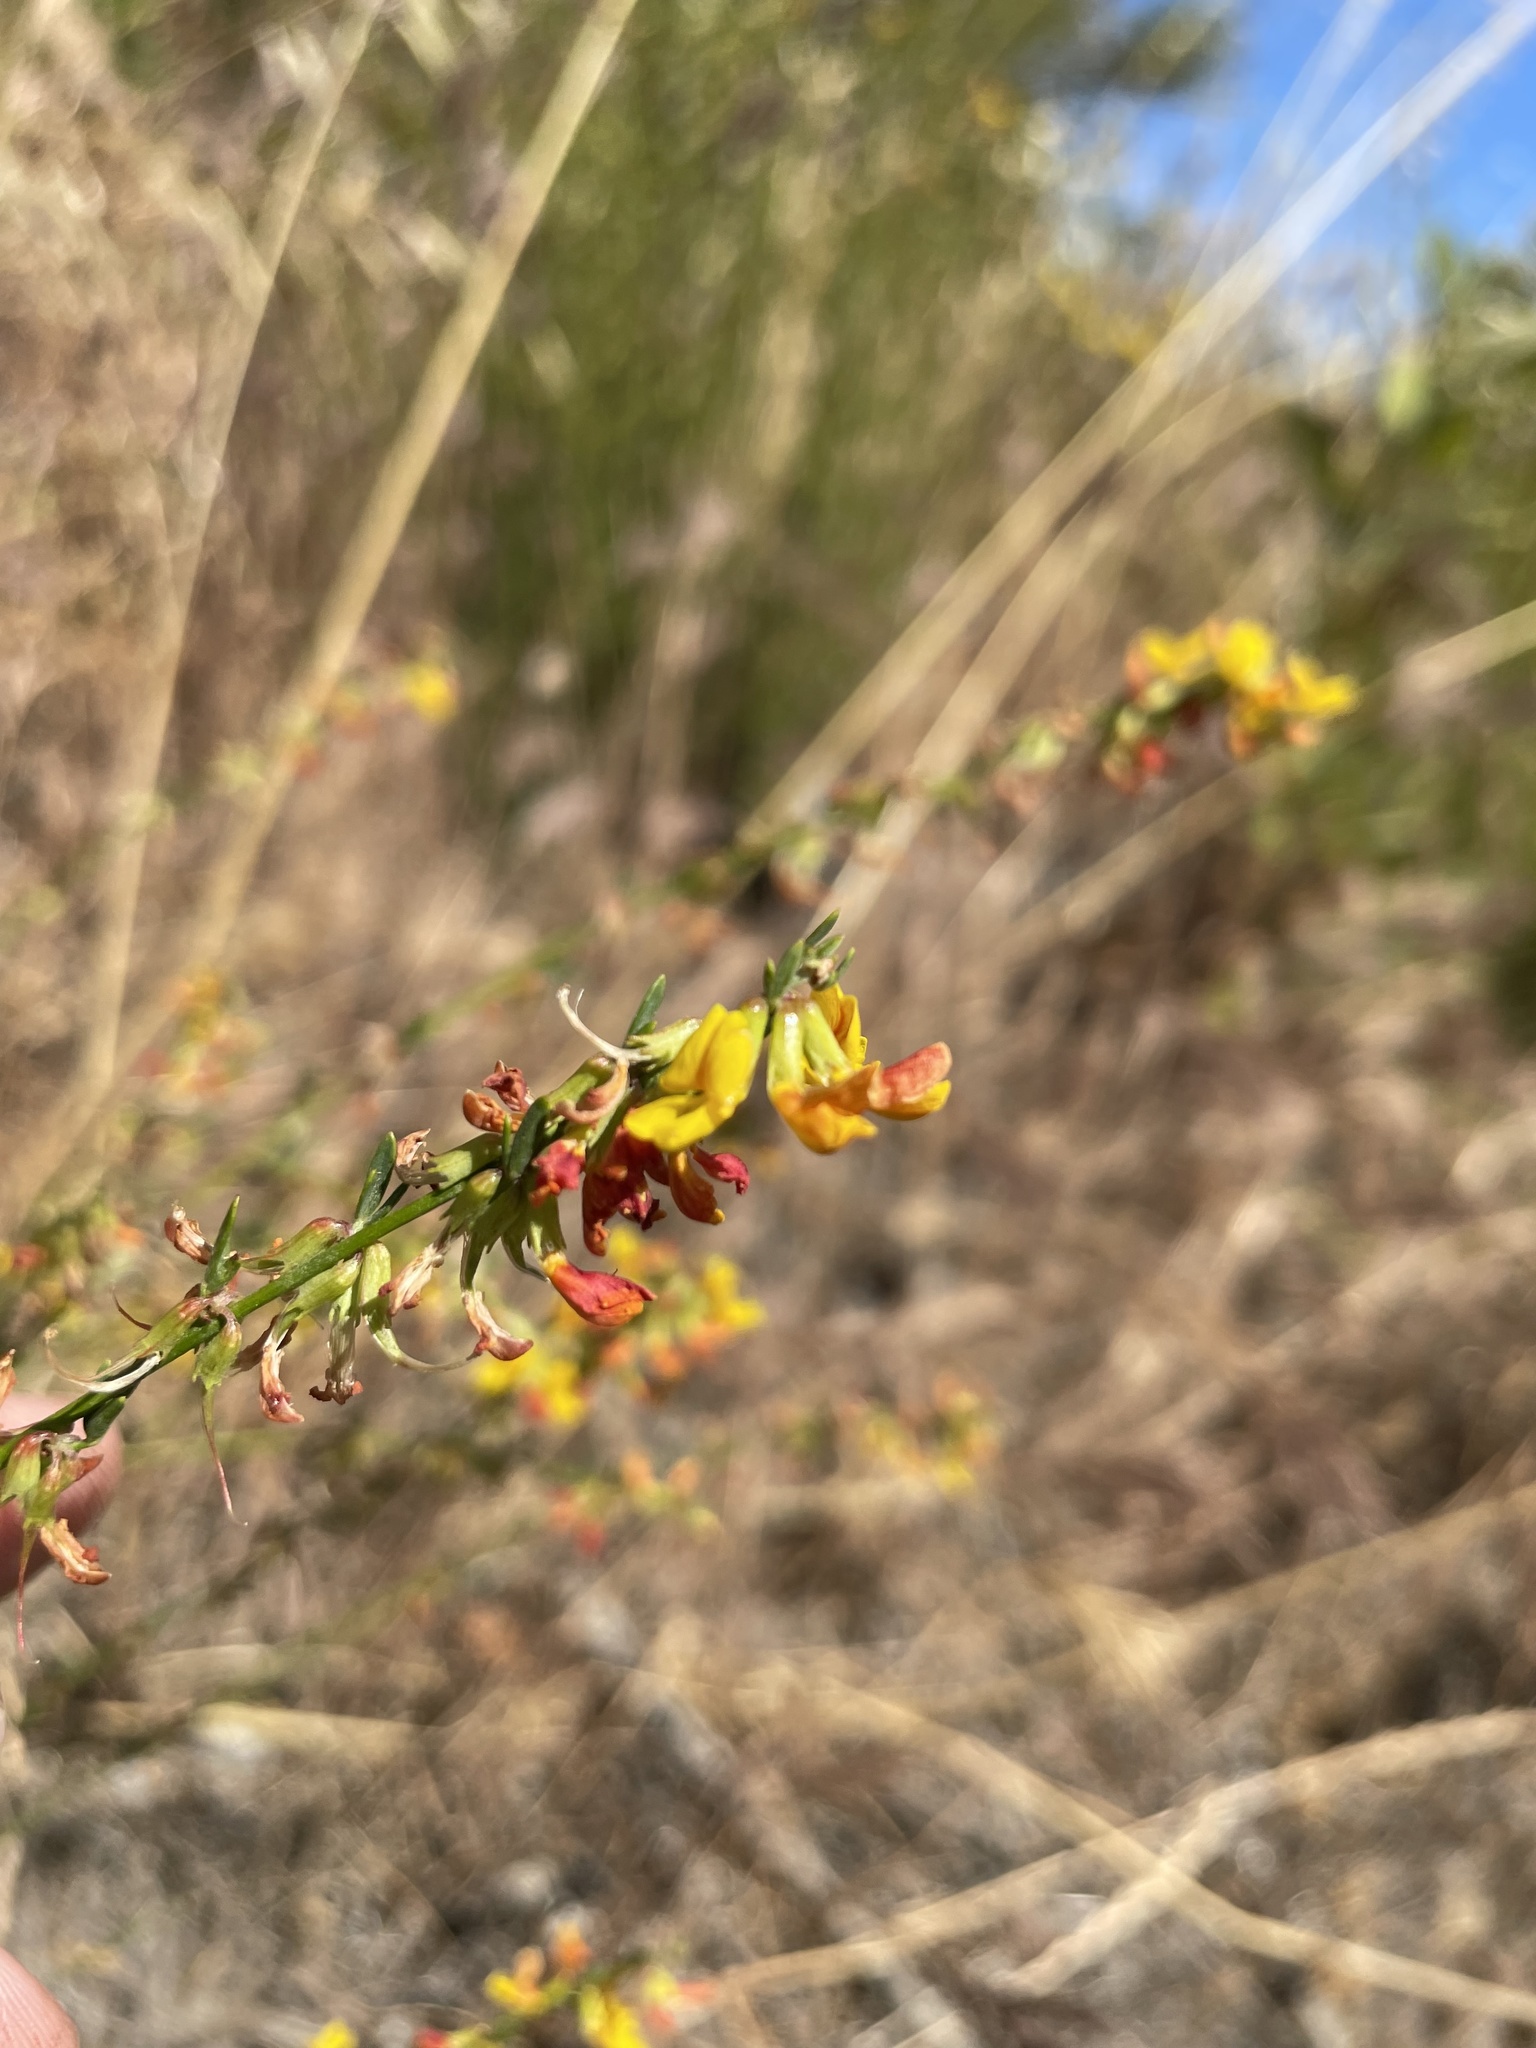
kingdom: Plantae
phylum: Tracheophyta
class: Magnoliopsida
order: Fabales
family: Fabaceae
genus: Acmispon
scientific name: Acmispon glaber
